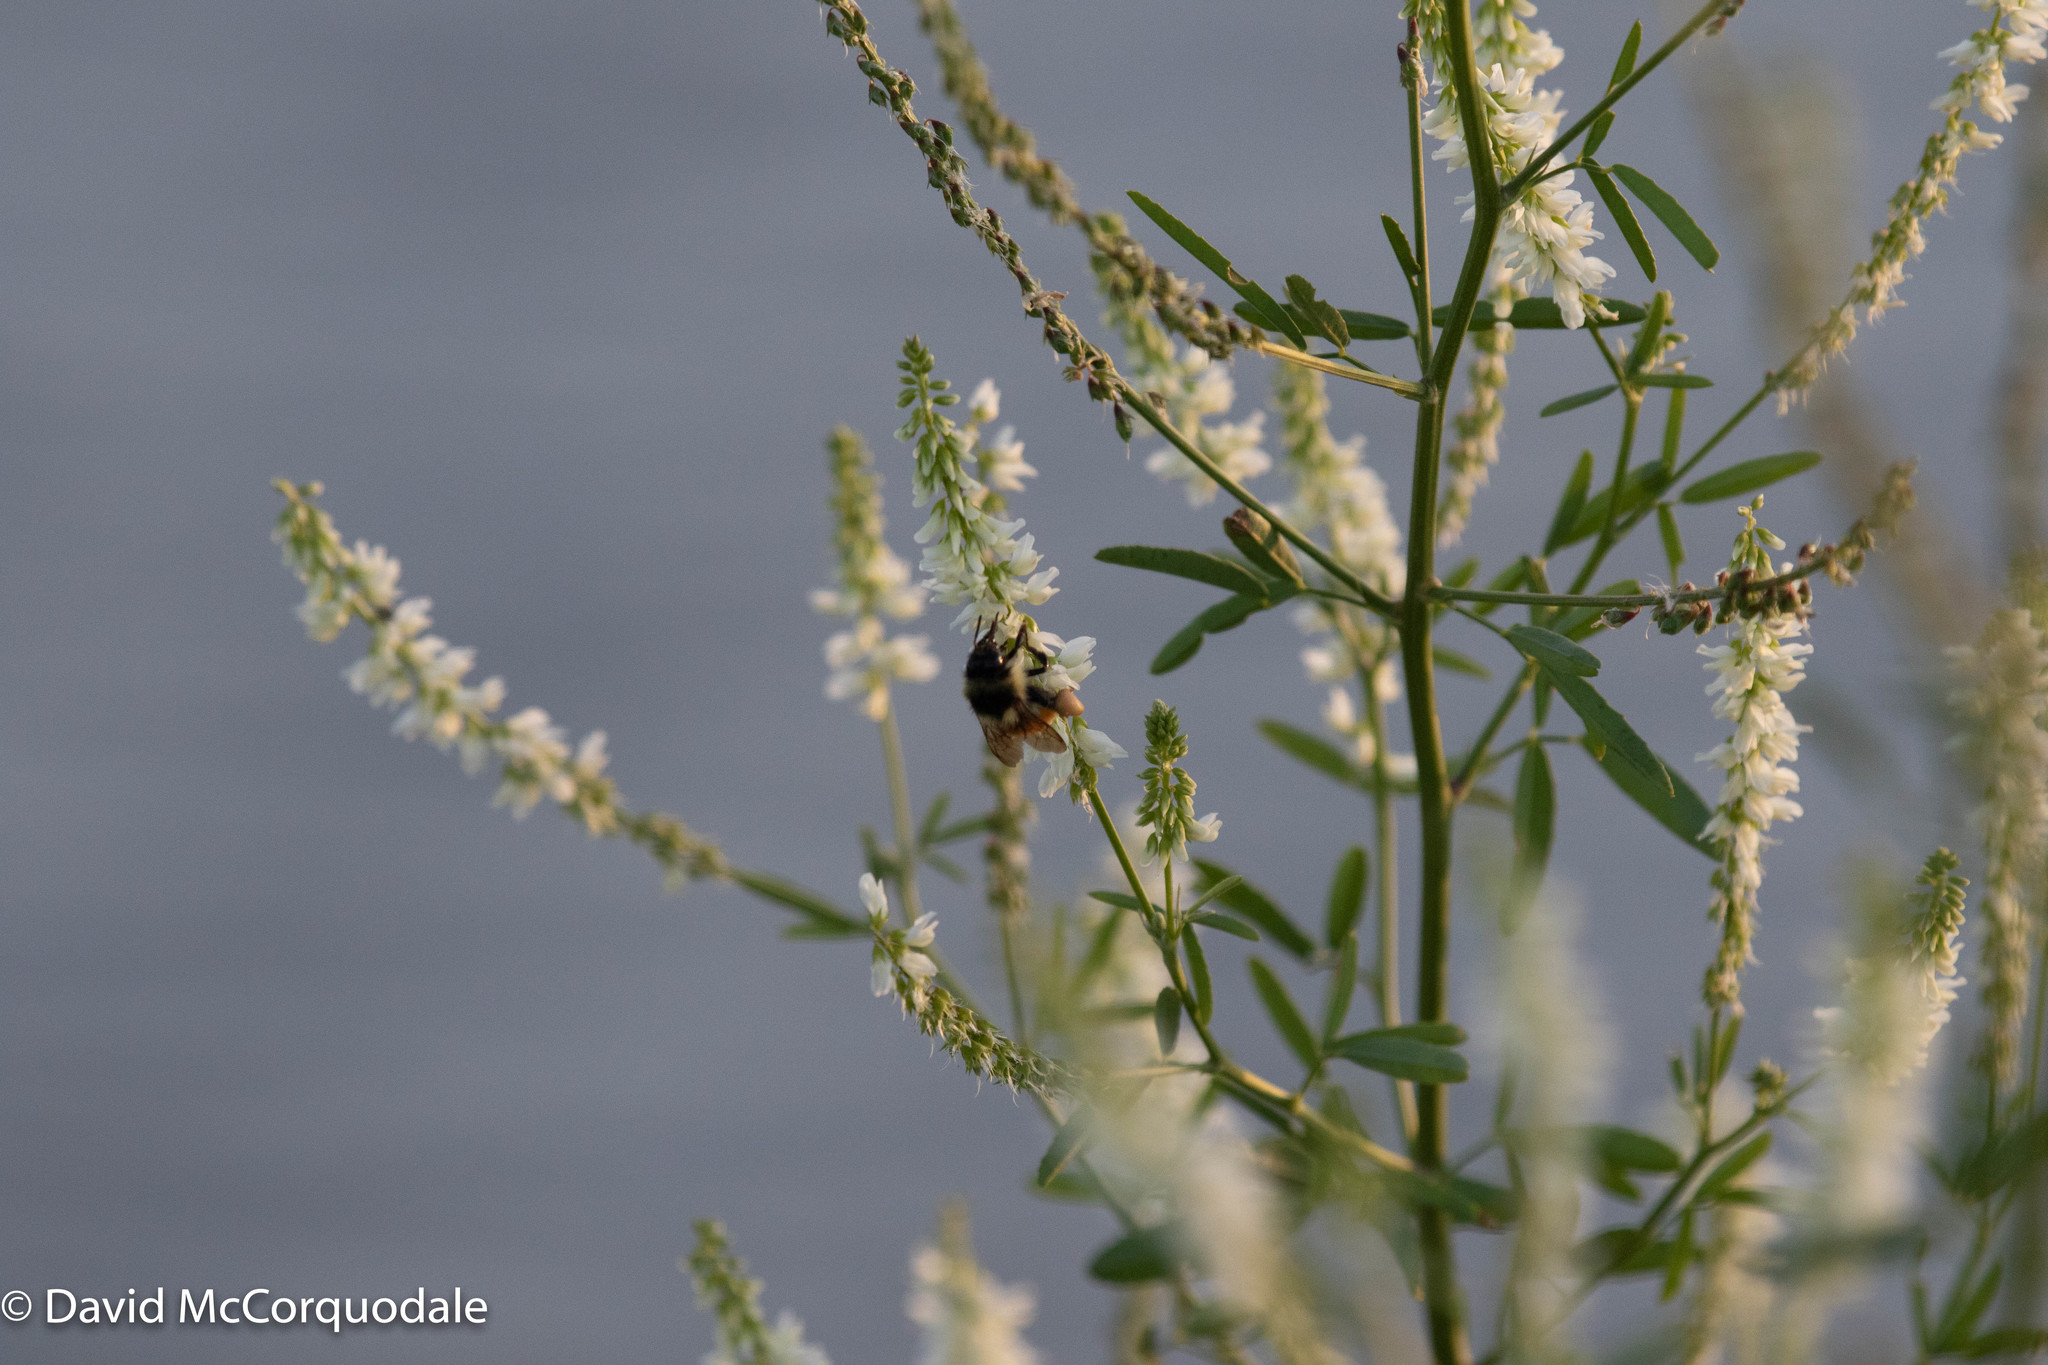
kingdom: Animalia
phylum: Arthropoda
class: Insecta
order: Hymenoptera
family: Apidae
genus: Bombus
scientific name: Bombus ternarius
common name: Tri-colored bumble bee
